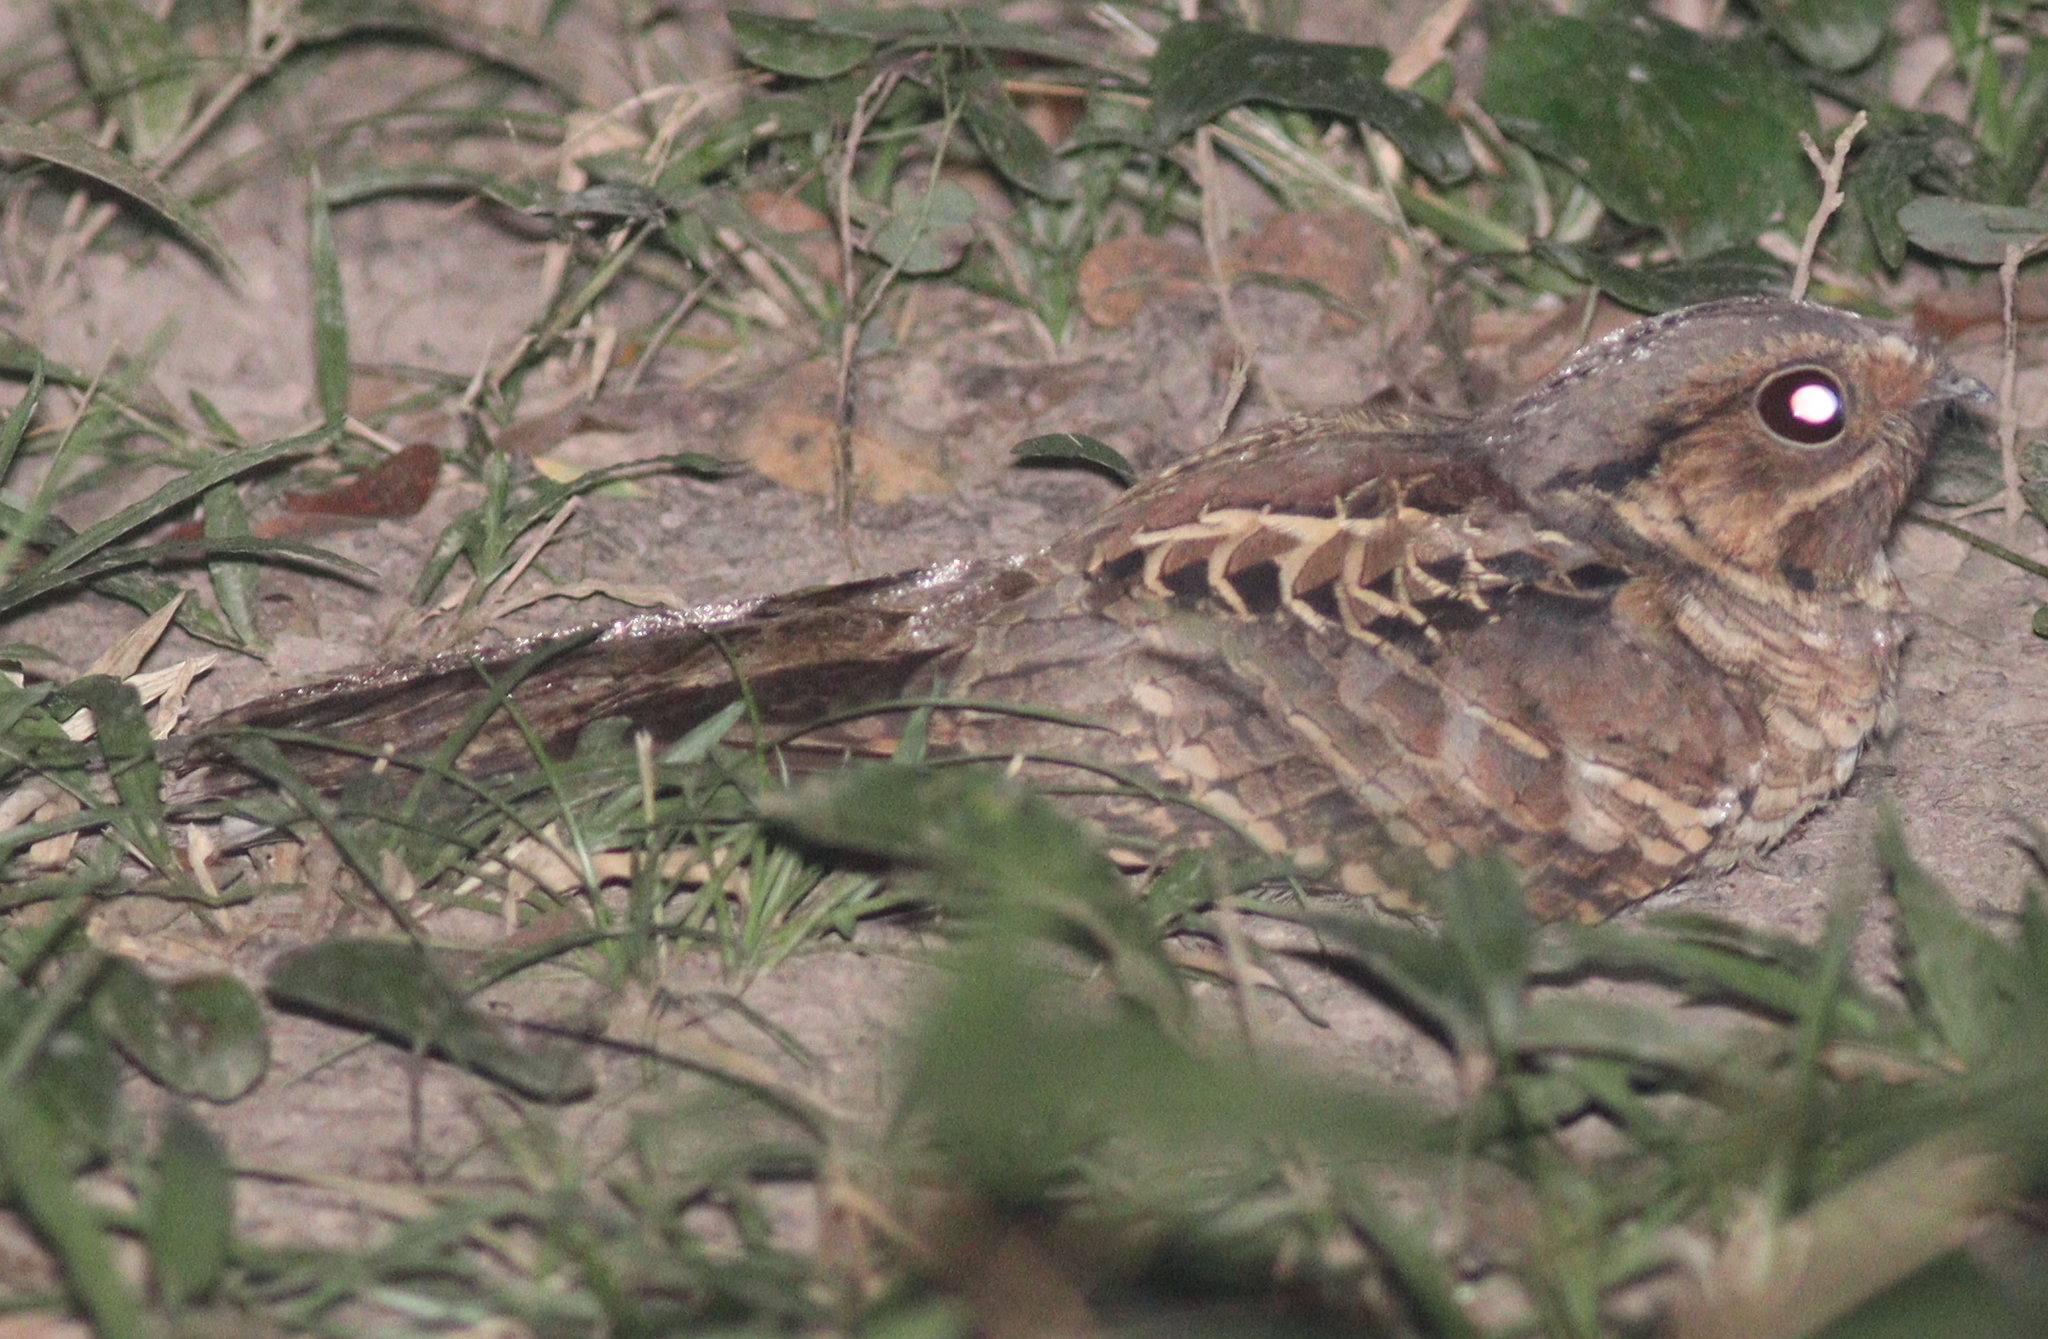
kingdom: Animalia
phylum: Chordata
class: Aves
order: Caprimulgiformes
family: Caprimulgidae
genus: Nyctidromus
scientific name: Nyctidromus albicollis
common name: Pauraque
